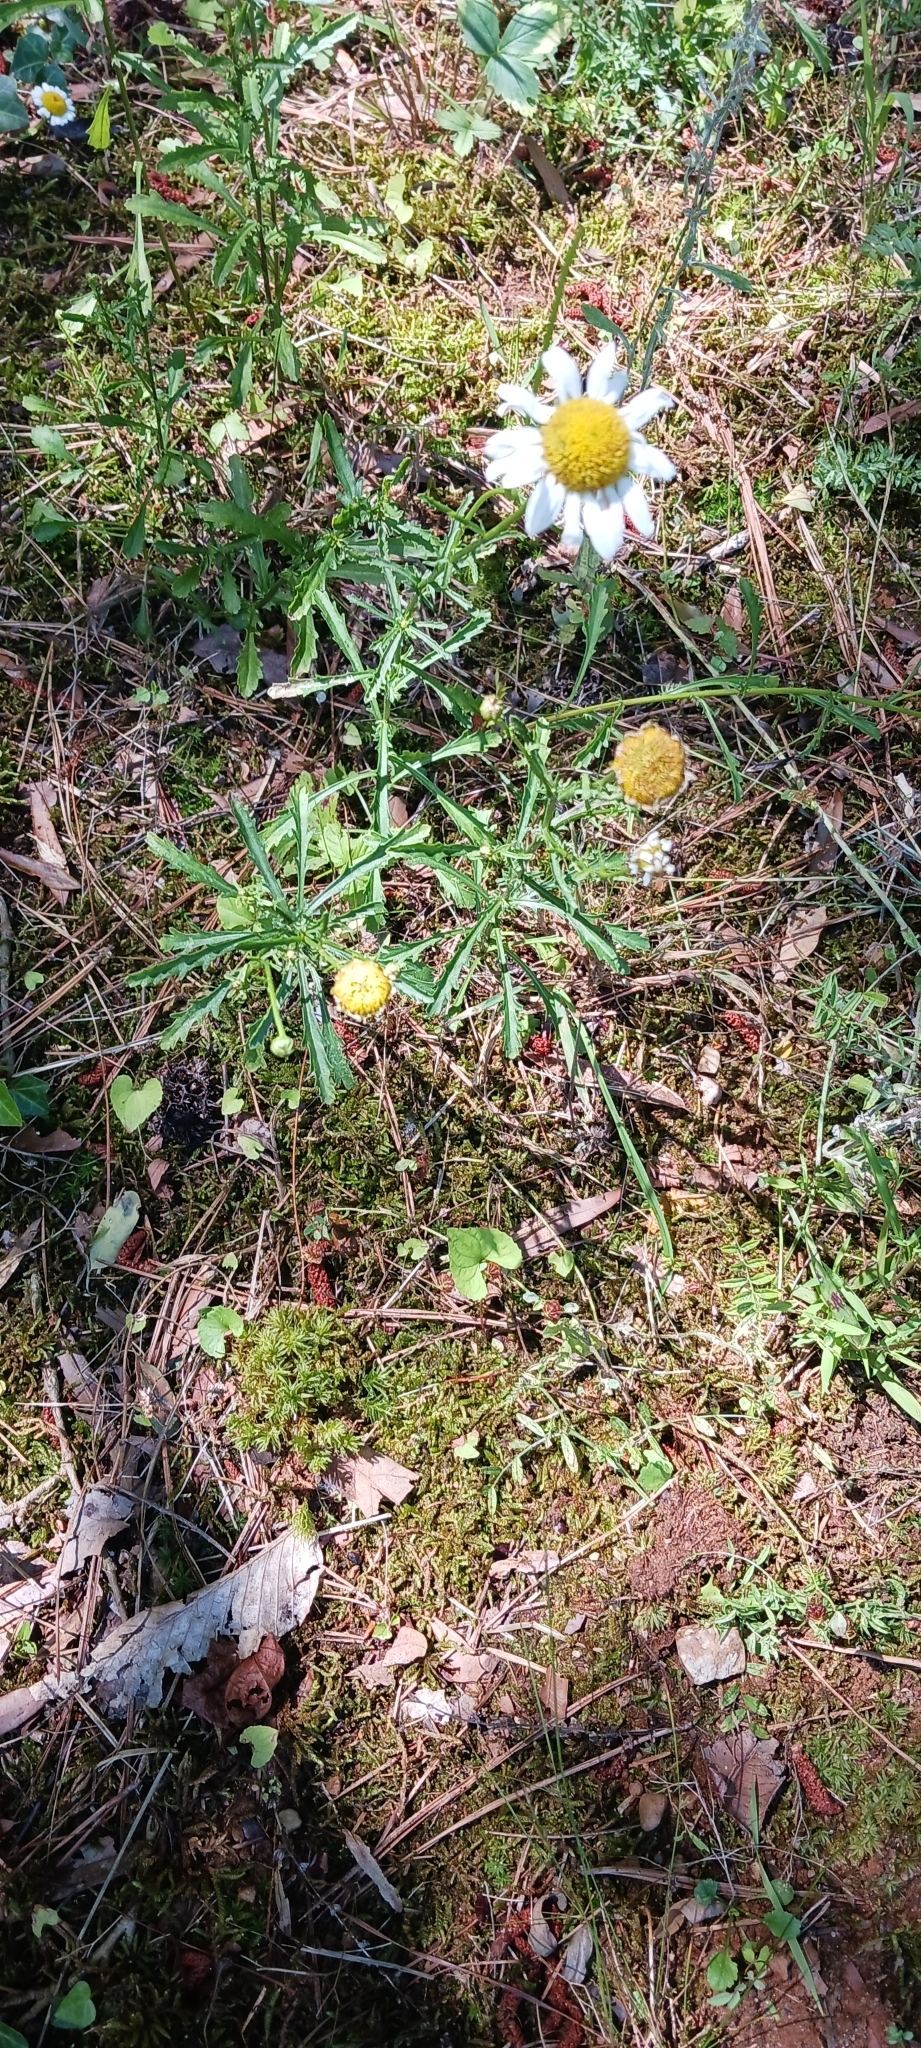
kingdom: Plantae
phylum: Tracheophyta
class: Magnoliopsida
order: Asterales
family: Asteraceae
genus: Leucanthemum
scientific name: Leucanthemum vulgare
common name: Oxeye daisy
